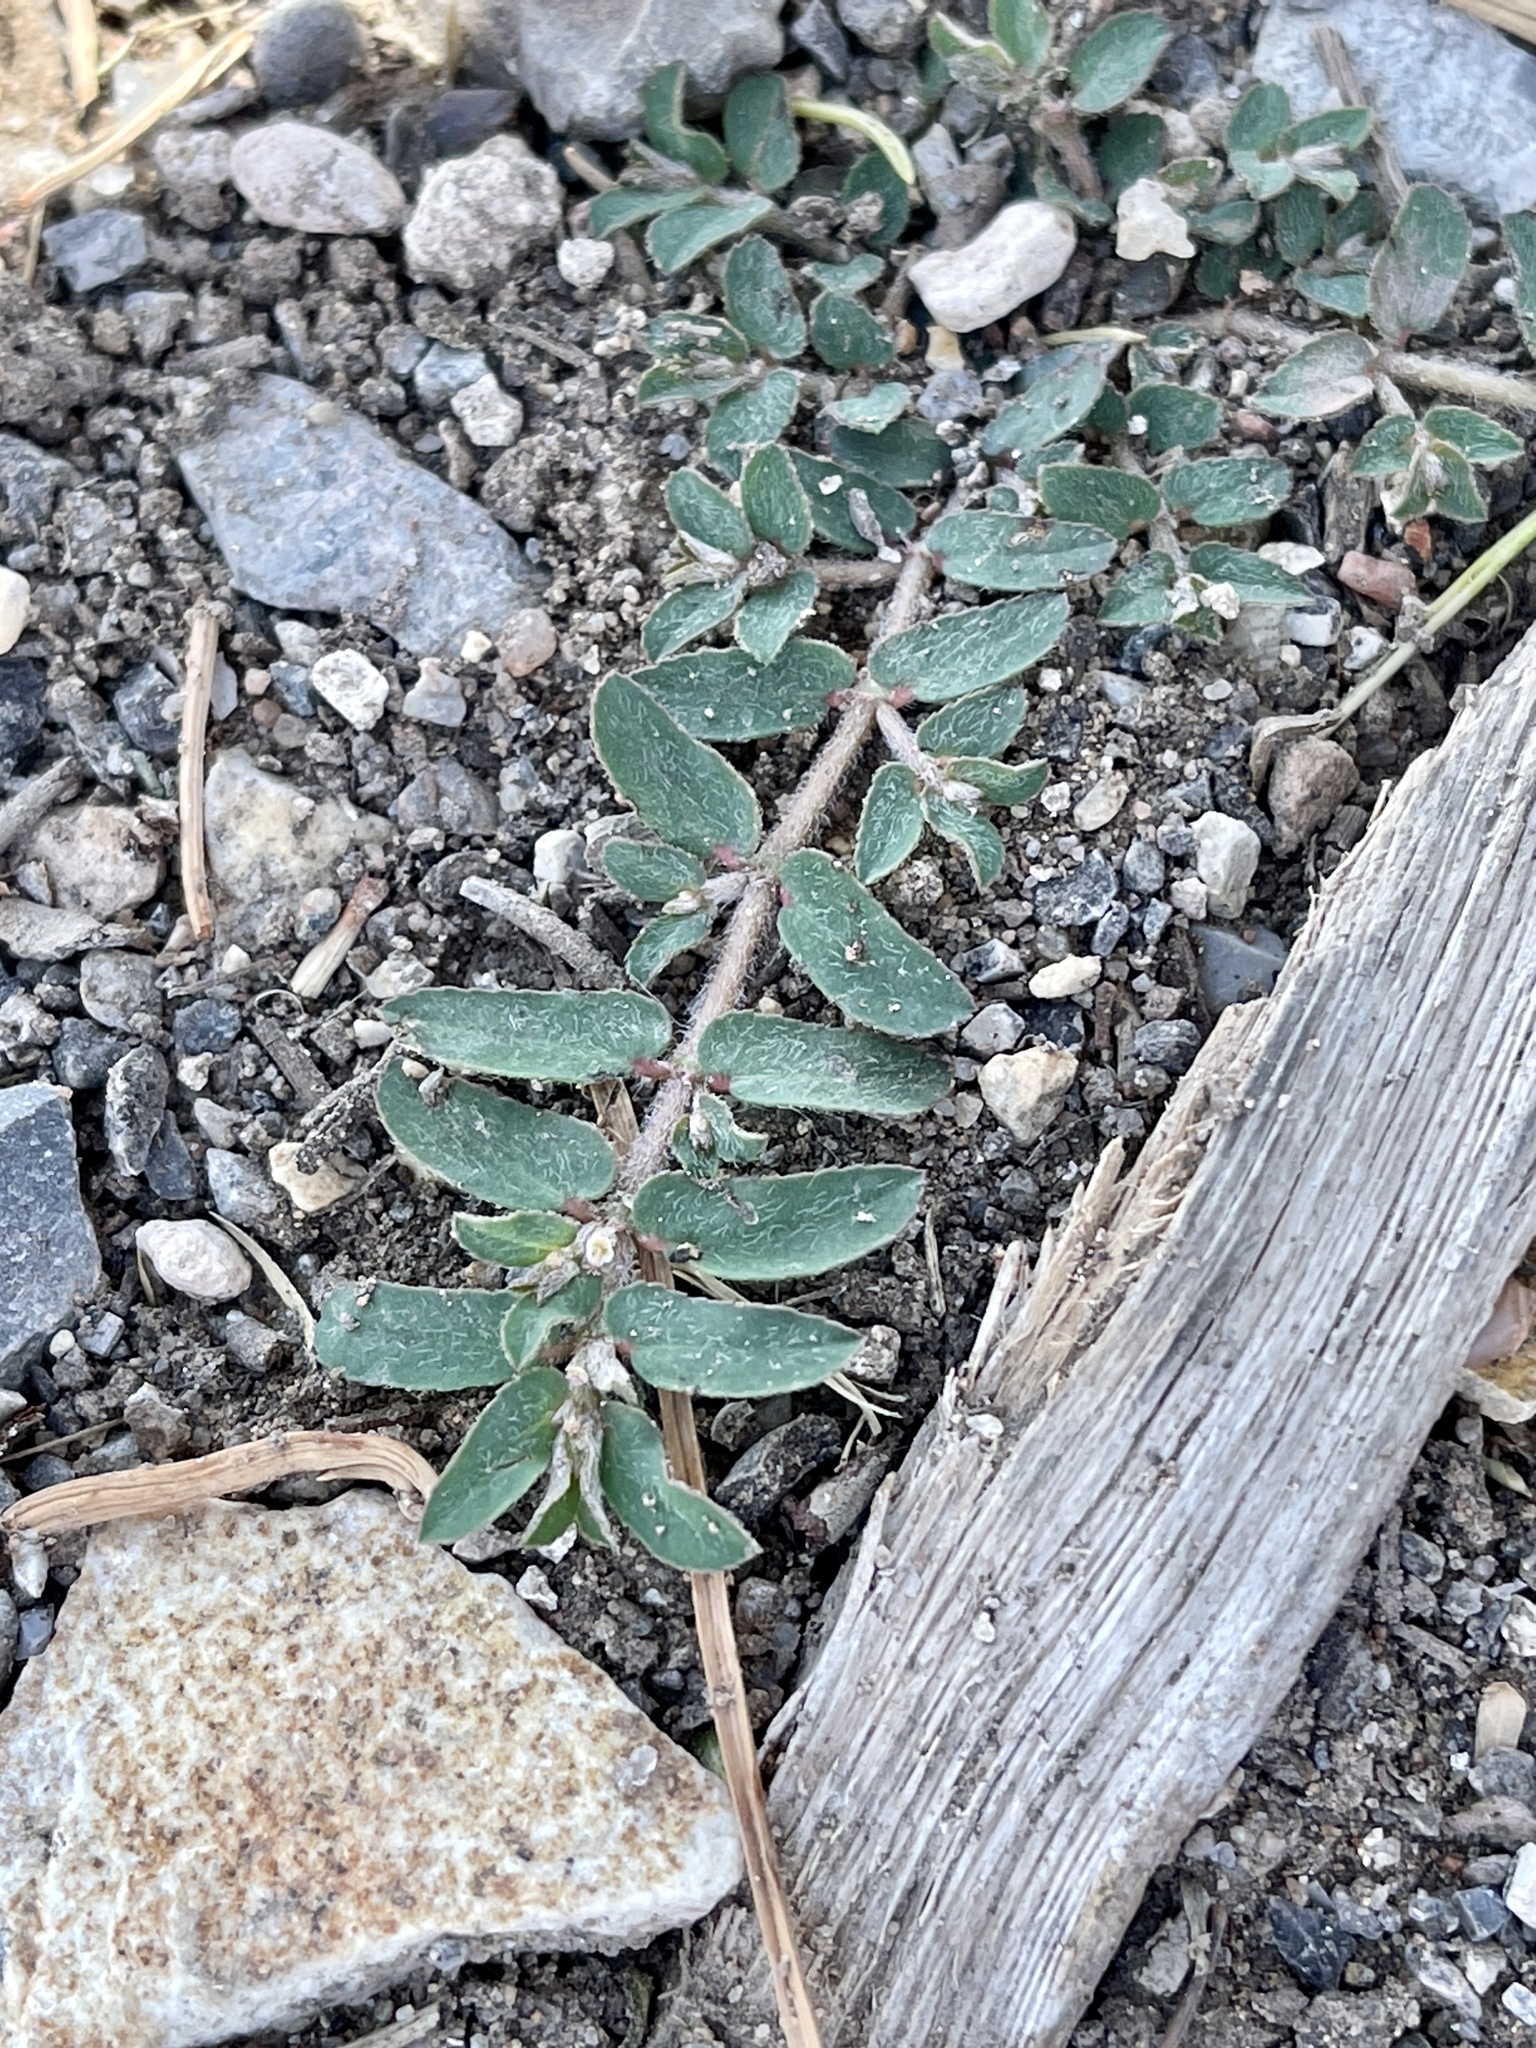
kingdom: Plantae
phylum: Tracheophyta
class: Magnoliopsida
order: Malpighiales
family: Euphorbiaceae
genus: Euphorbia
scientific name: Euphorbia maculata
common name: Spotted spurge
